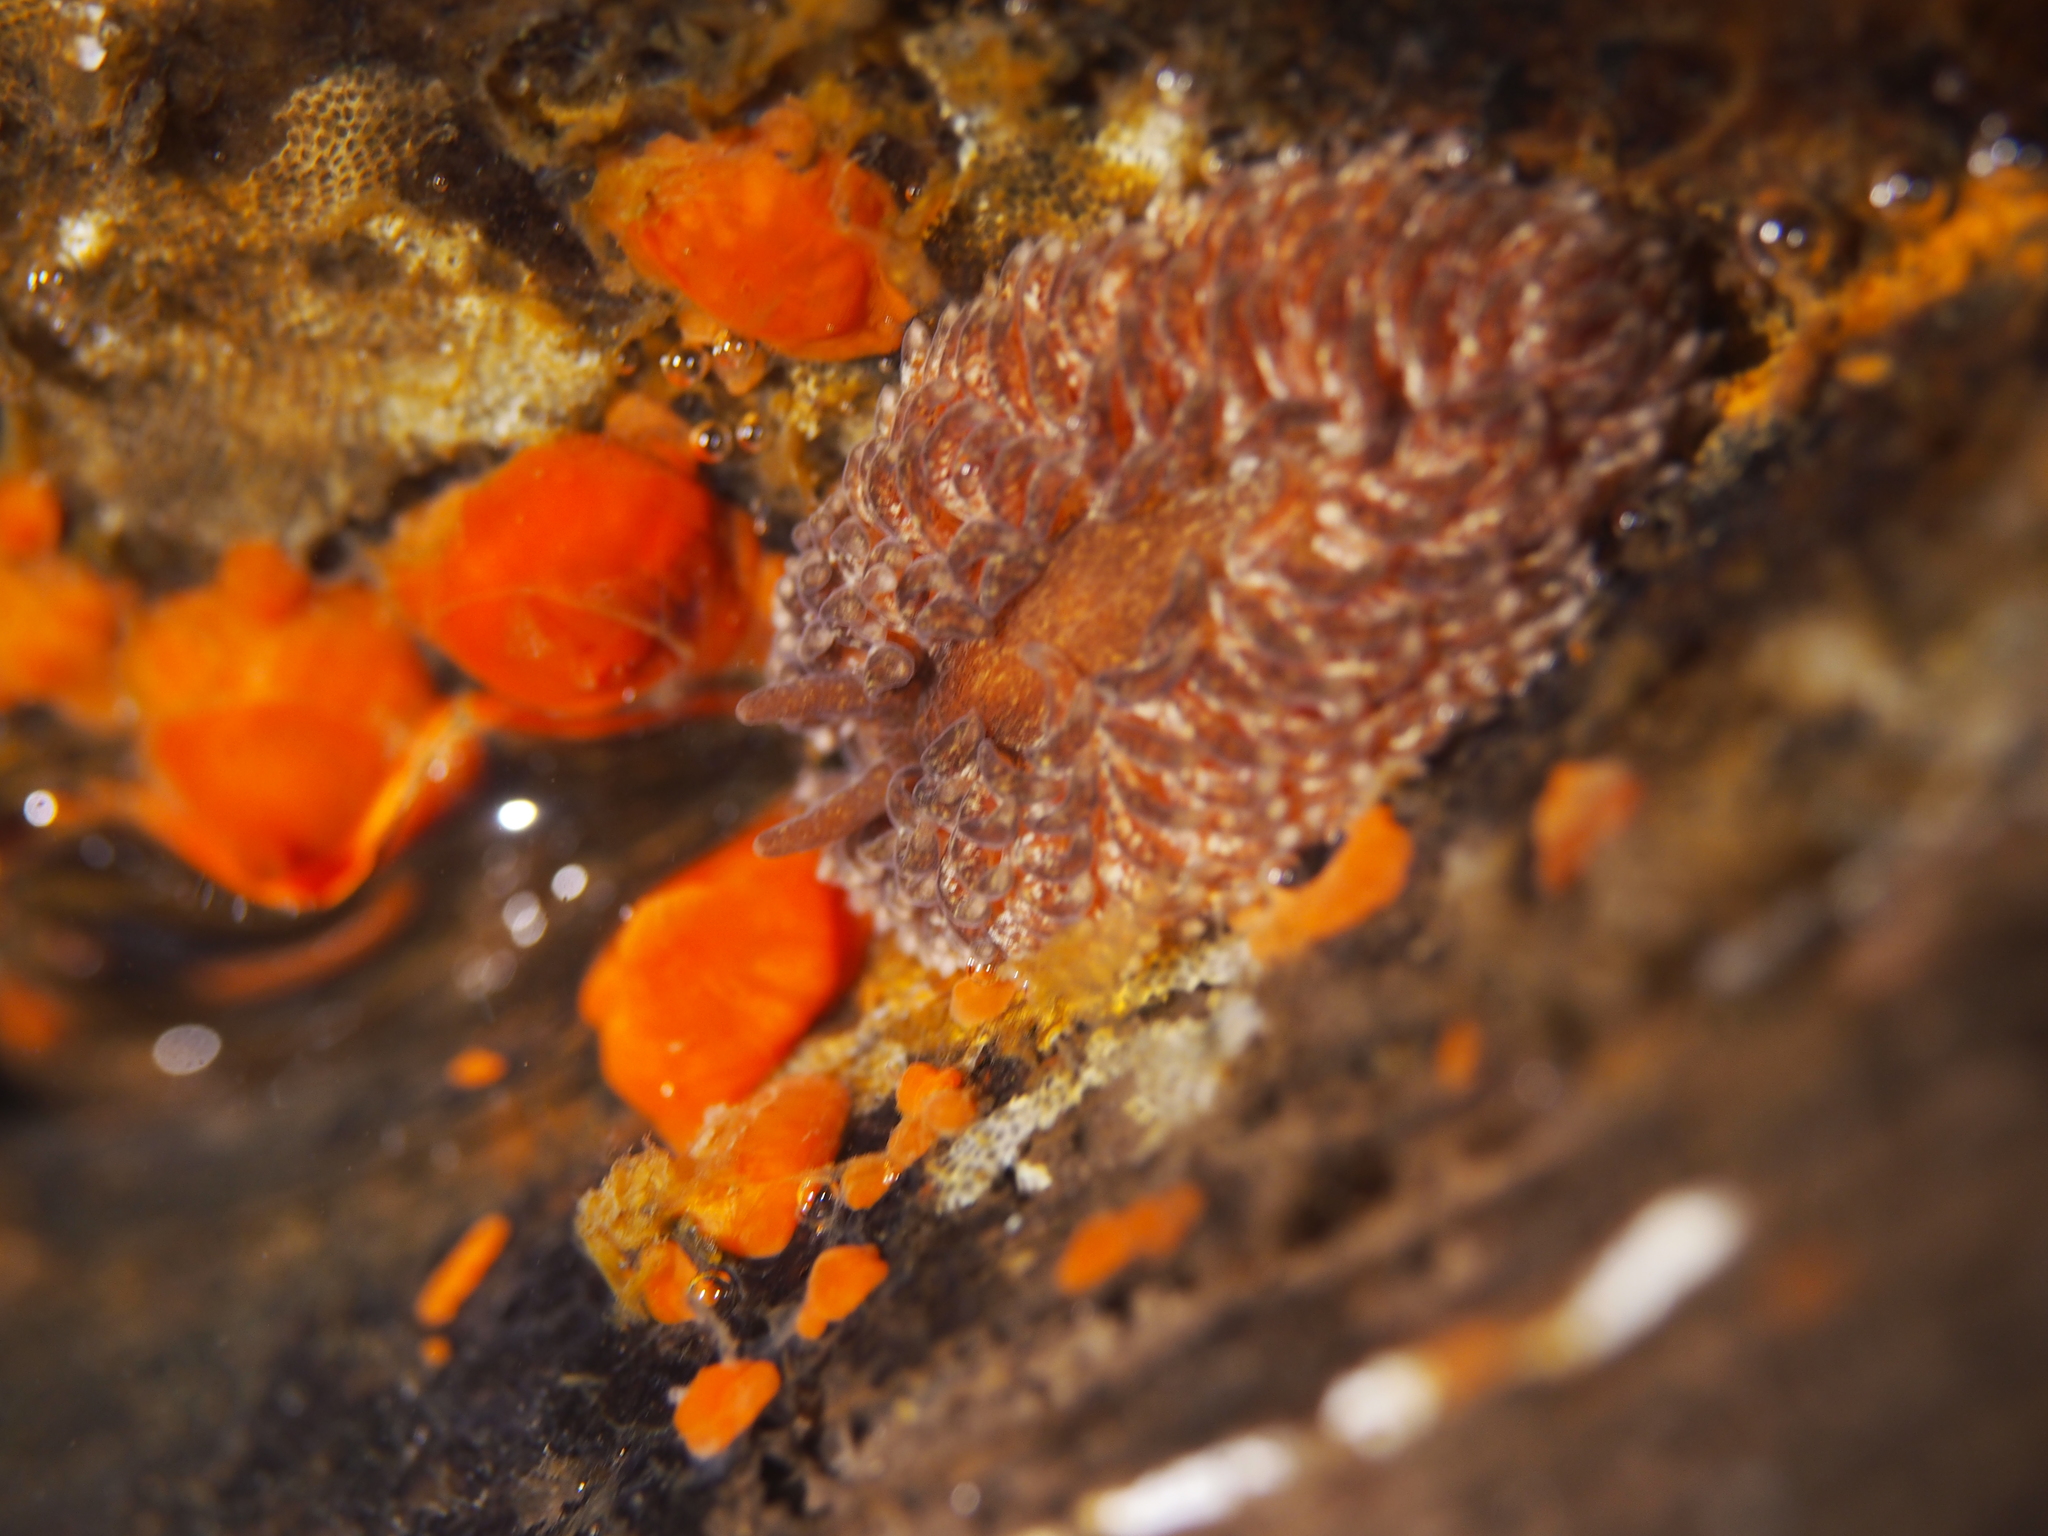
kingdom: Animalia
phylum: Mollusca
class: Gastropoda
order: Nudibranchia
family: Aeolidiidae
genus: Aeolidia
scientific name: Aeolidia papillosa
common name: Common grey sea slug
